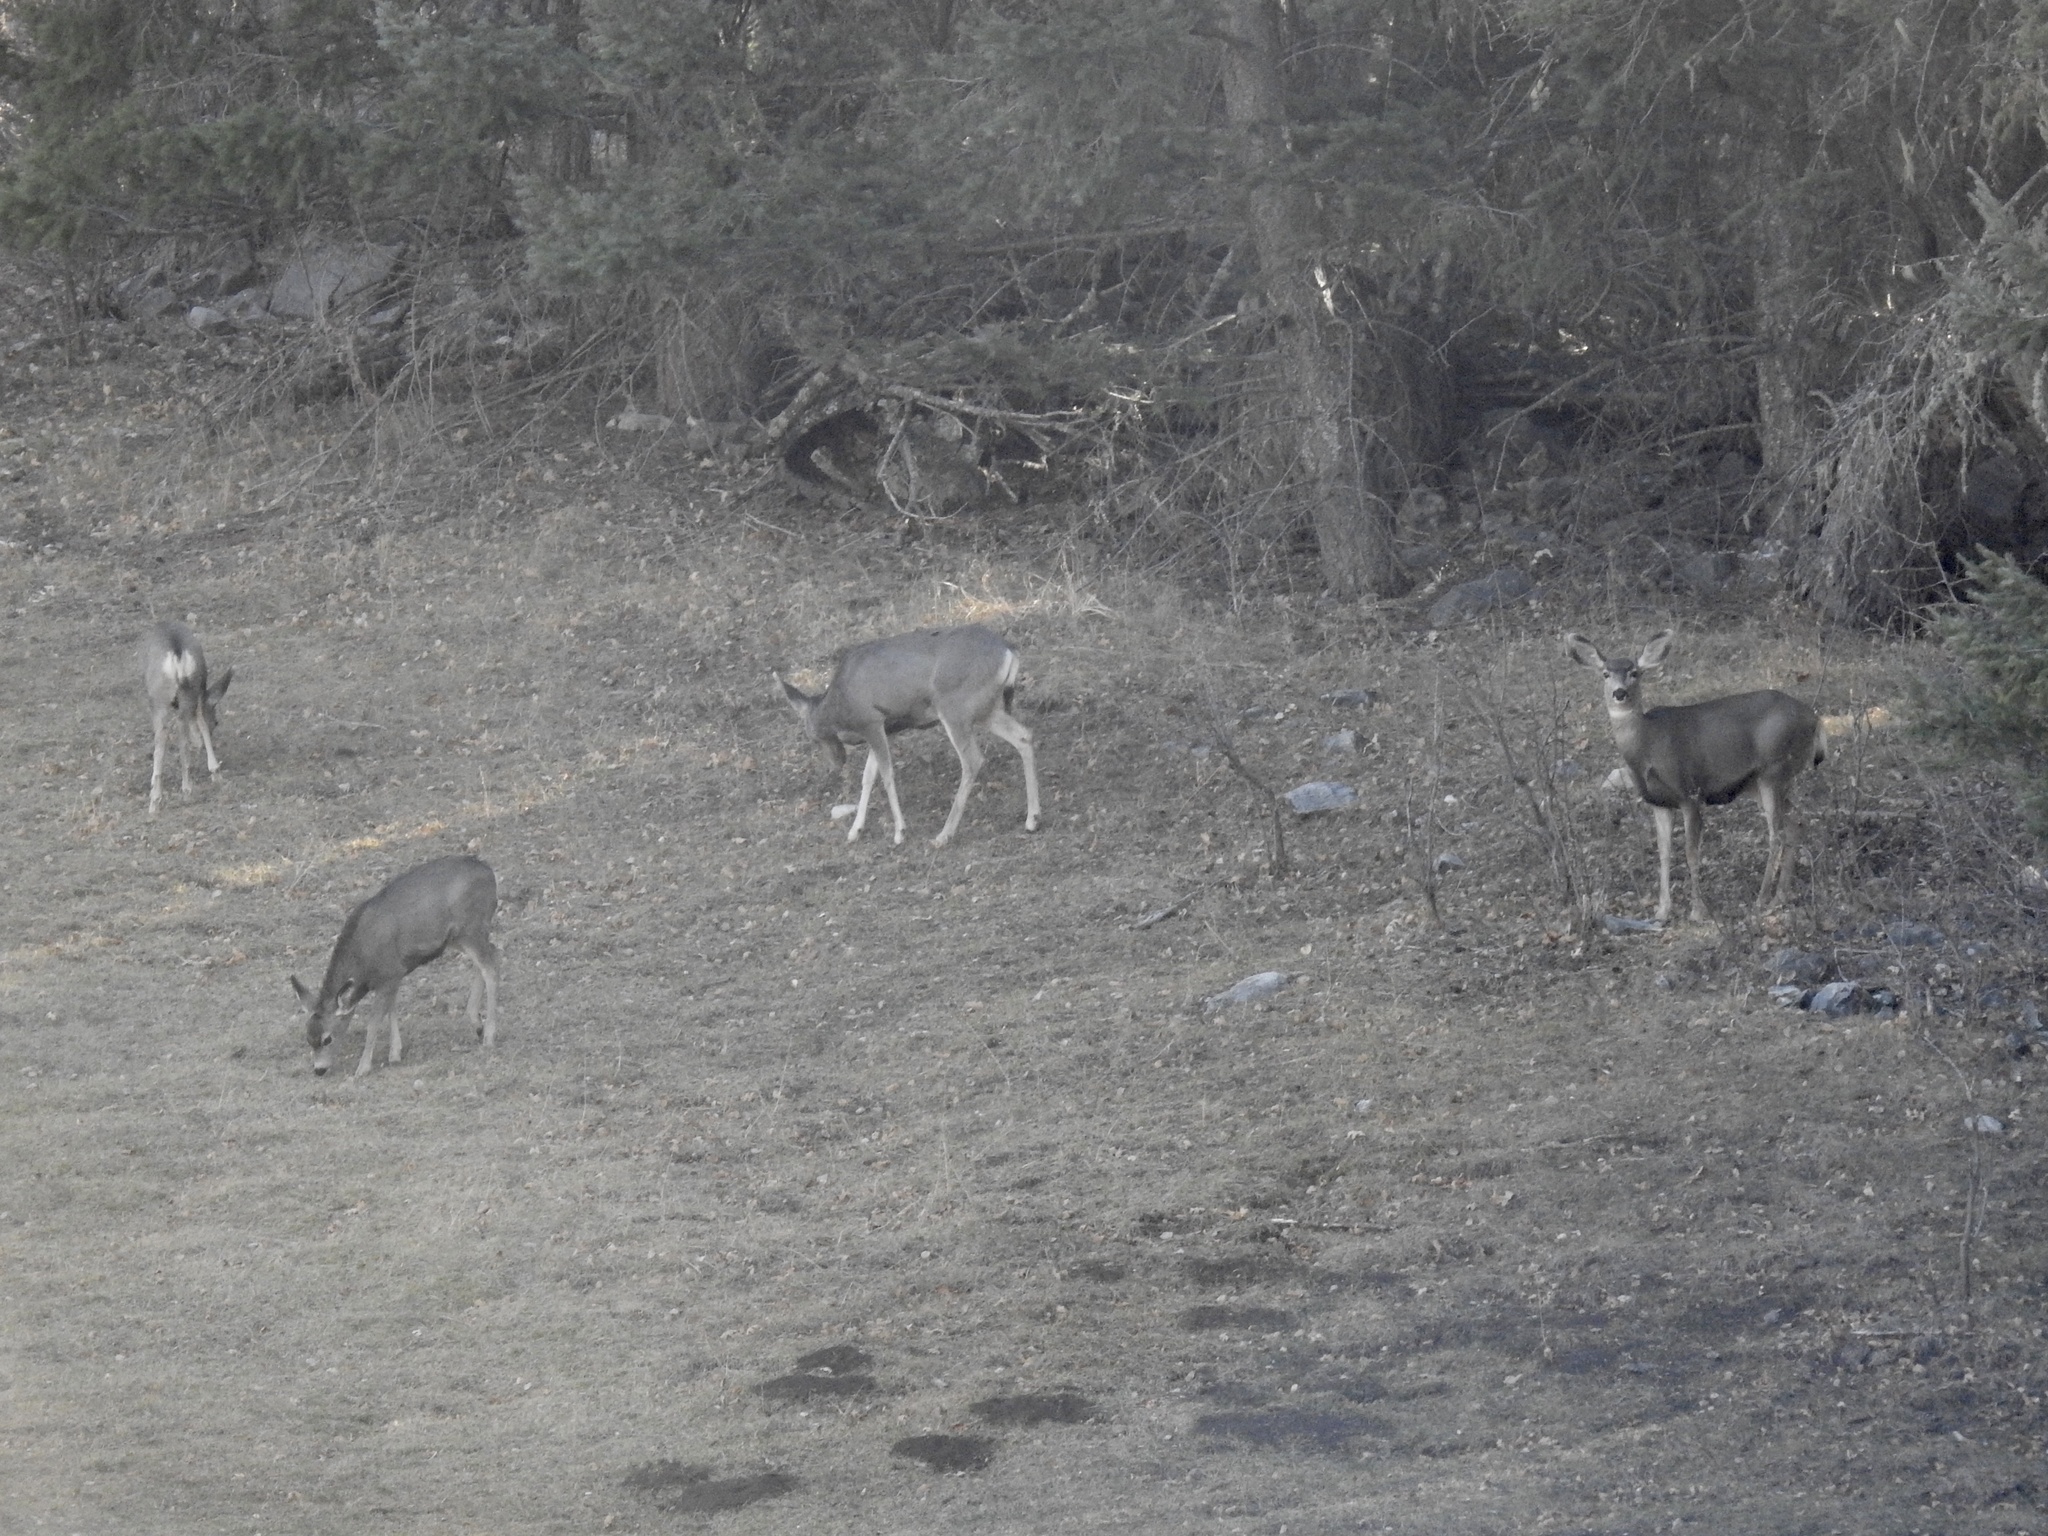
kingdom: Animalia
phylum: Chordata
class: Mammalia
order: Artiodactyla
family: Cervidae
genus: Odocoileus
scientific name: Odocoileus hemionus
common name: Mule deer
